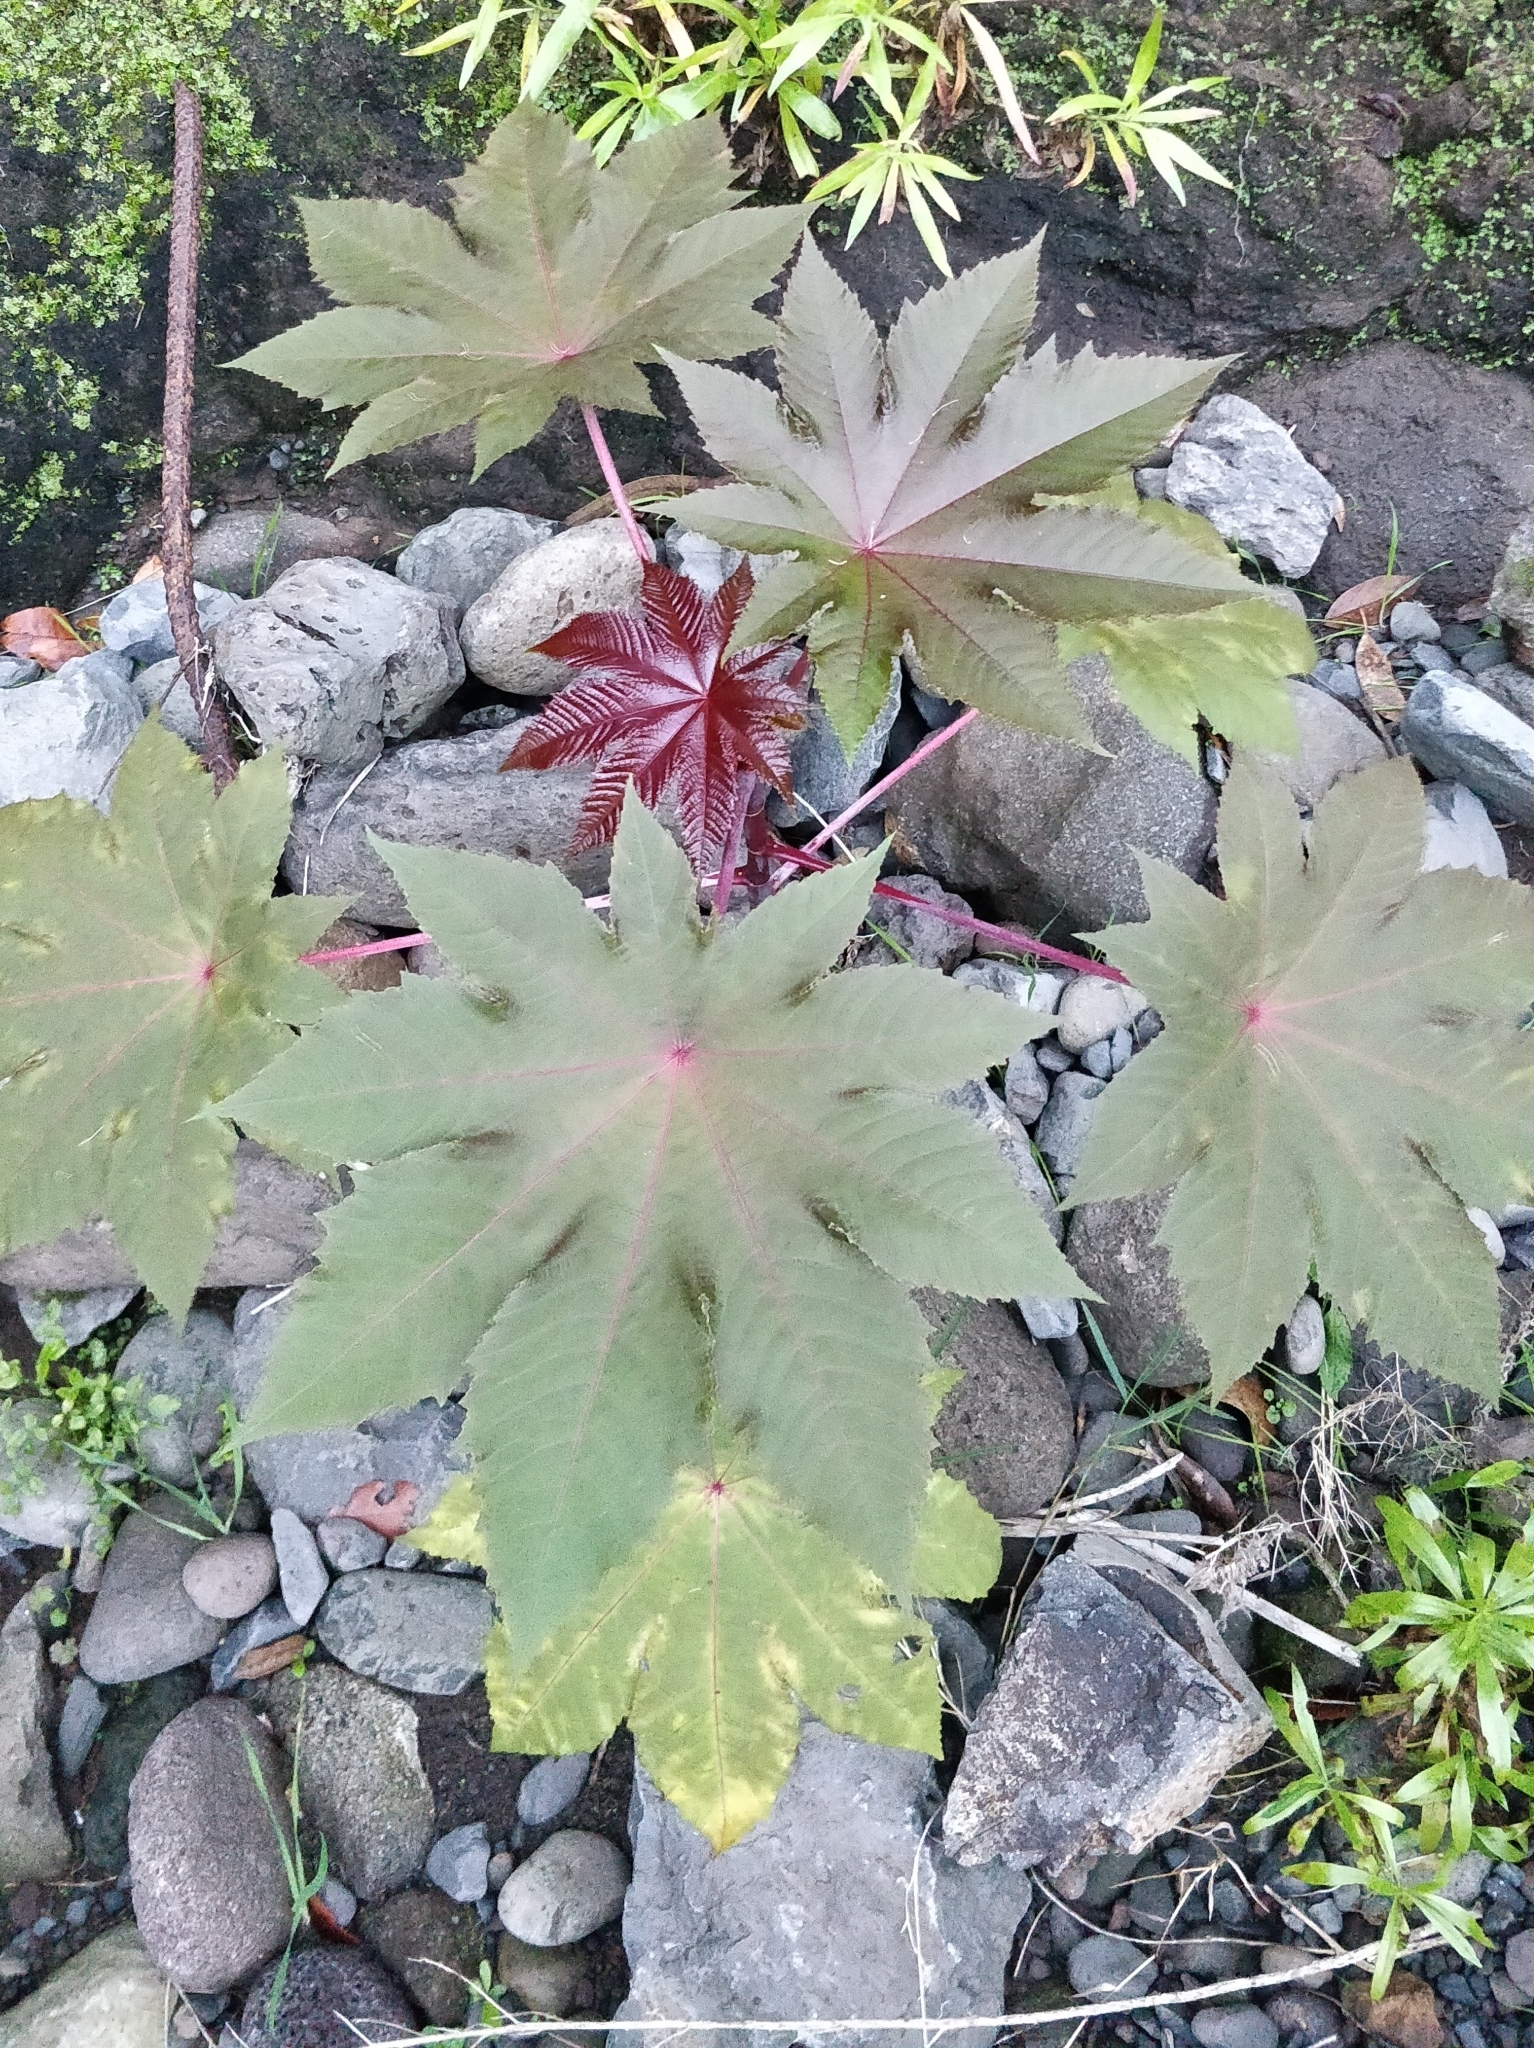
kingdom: Plantae
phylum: Tracheophyta
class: Magnoliopsida
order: Malpighiales
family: Euphorbiaceae
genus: Ricinus
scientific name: Ricinus communis
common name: Castor-oil-plant
